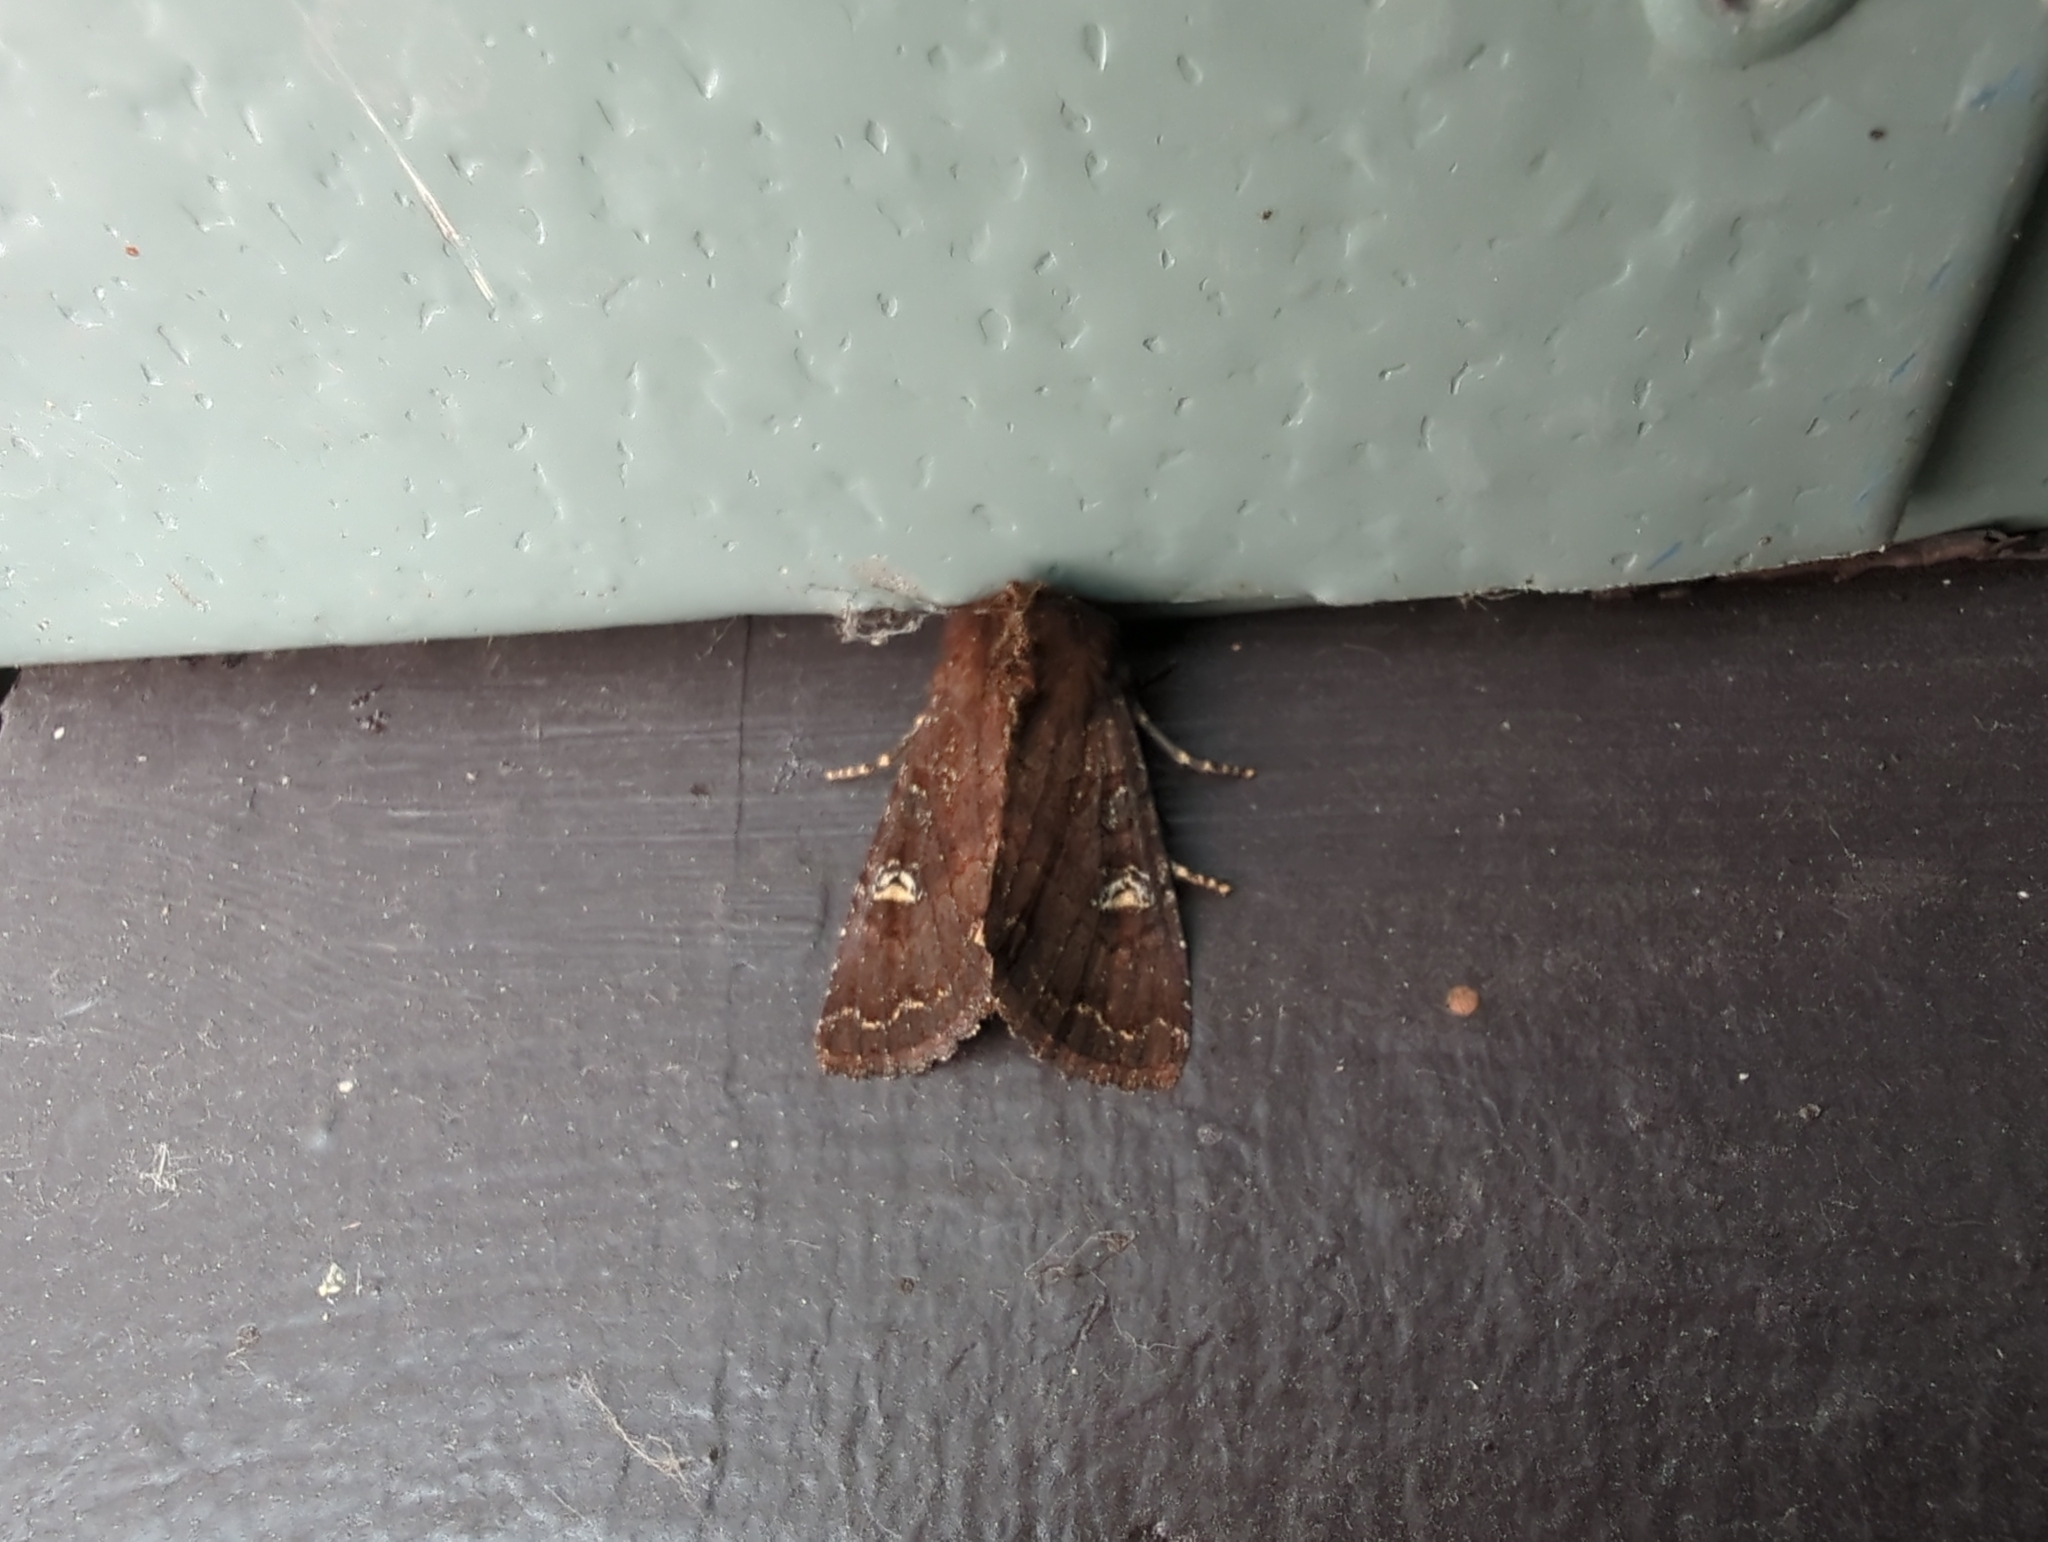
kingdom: Animalia
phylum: Arthropoda
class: Insecta
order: Lepidoptera
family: Noctuidae
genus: Apamea
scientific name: Apamea cogitata
